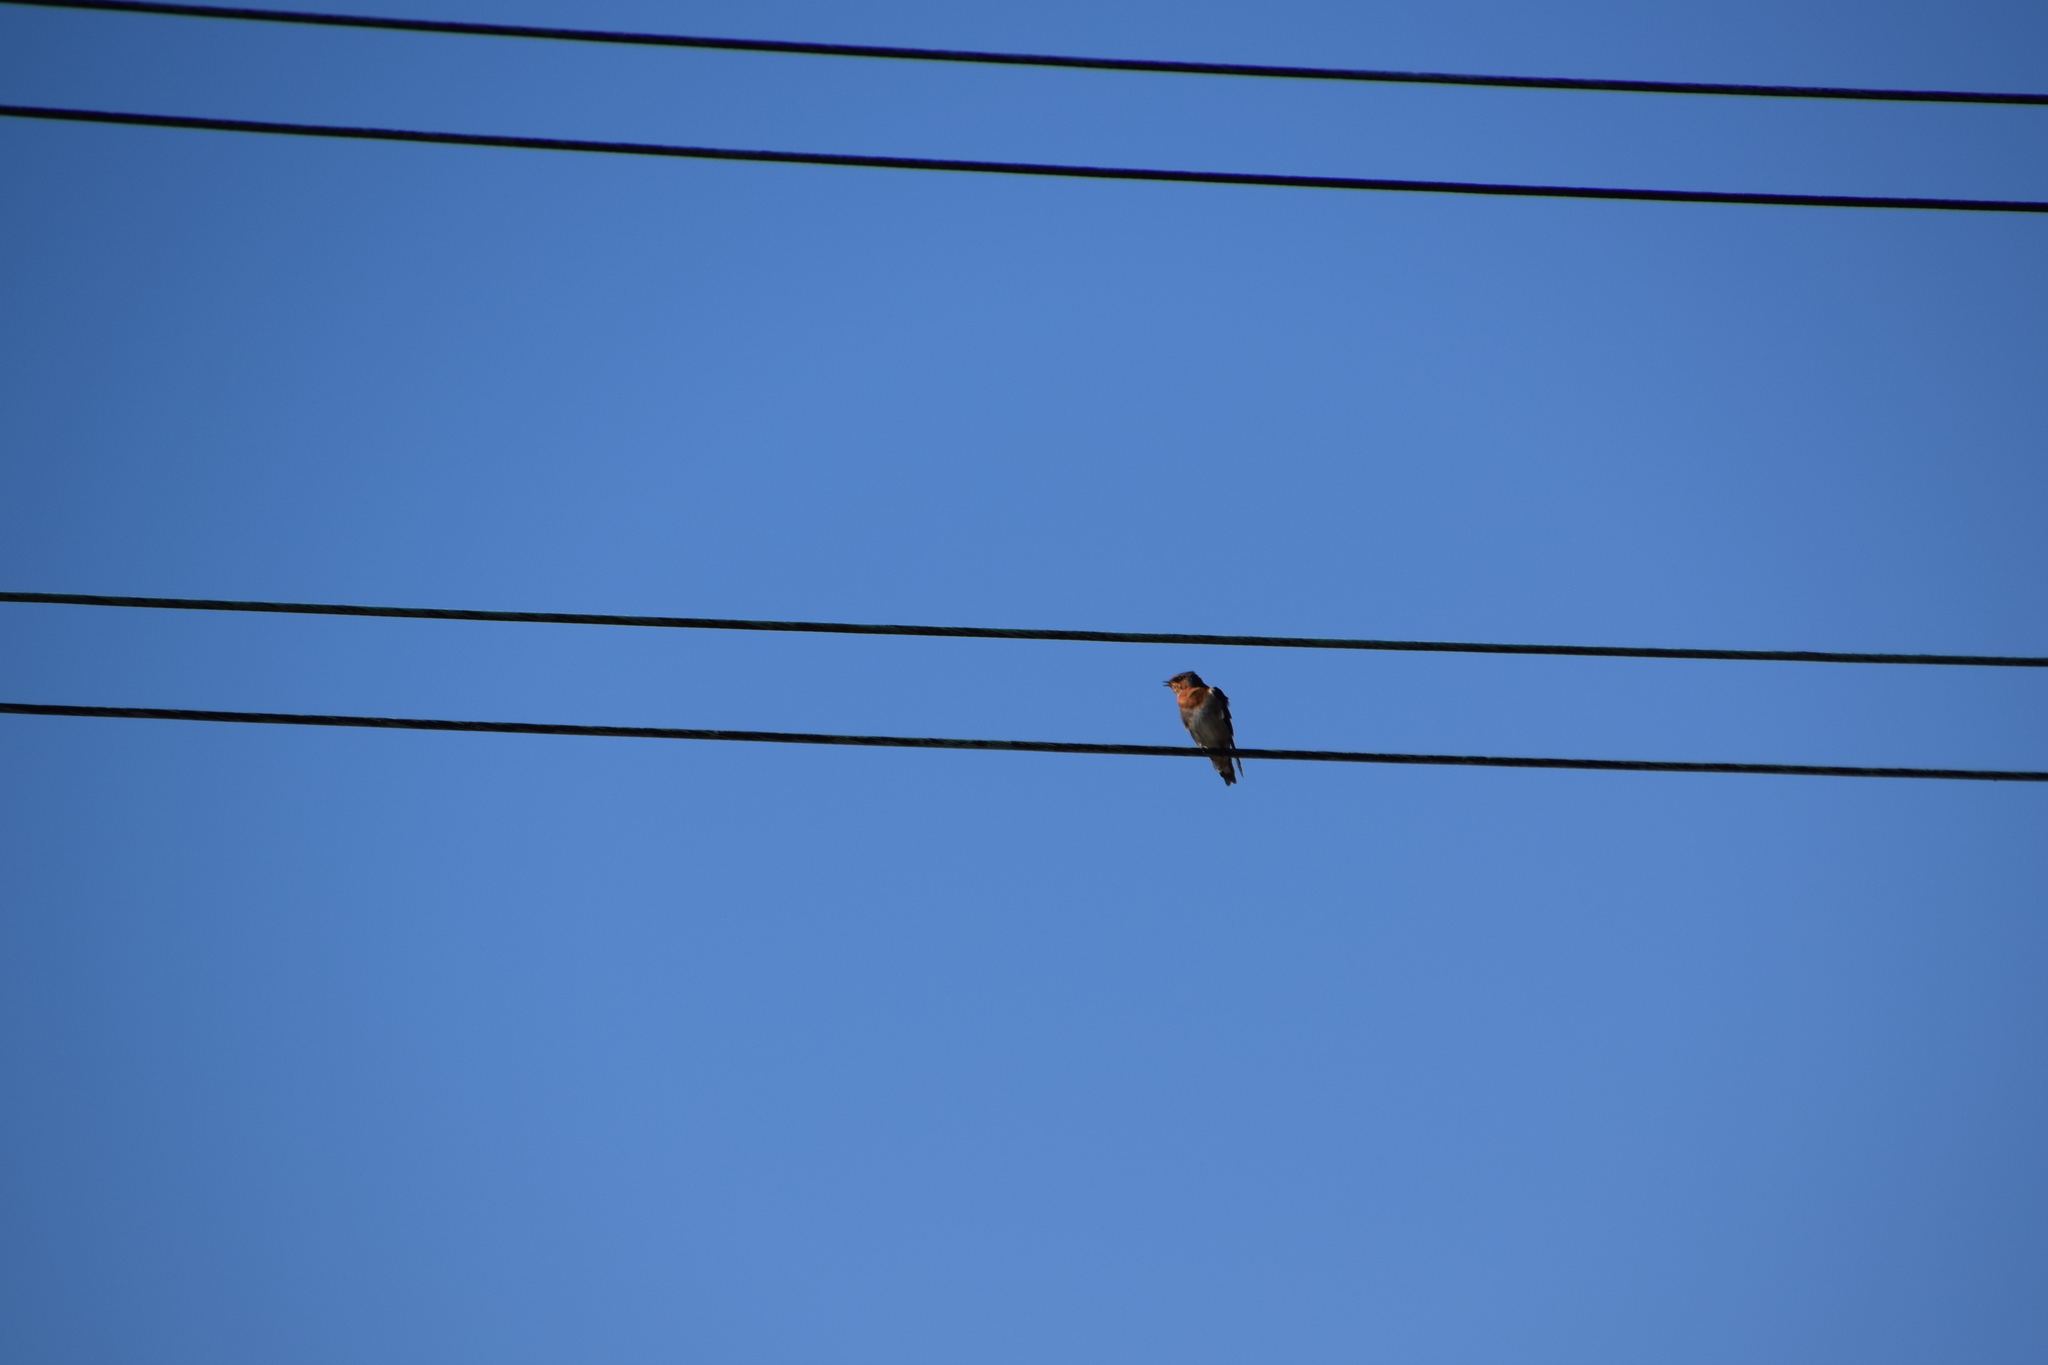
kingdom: Animalia
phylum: Chordata
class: Aves
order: Passeriformes
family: Hirundinidae
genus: Hirundo
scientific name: Hirundo neoxena
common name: Welcome swallow
